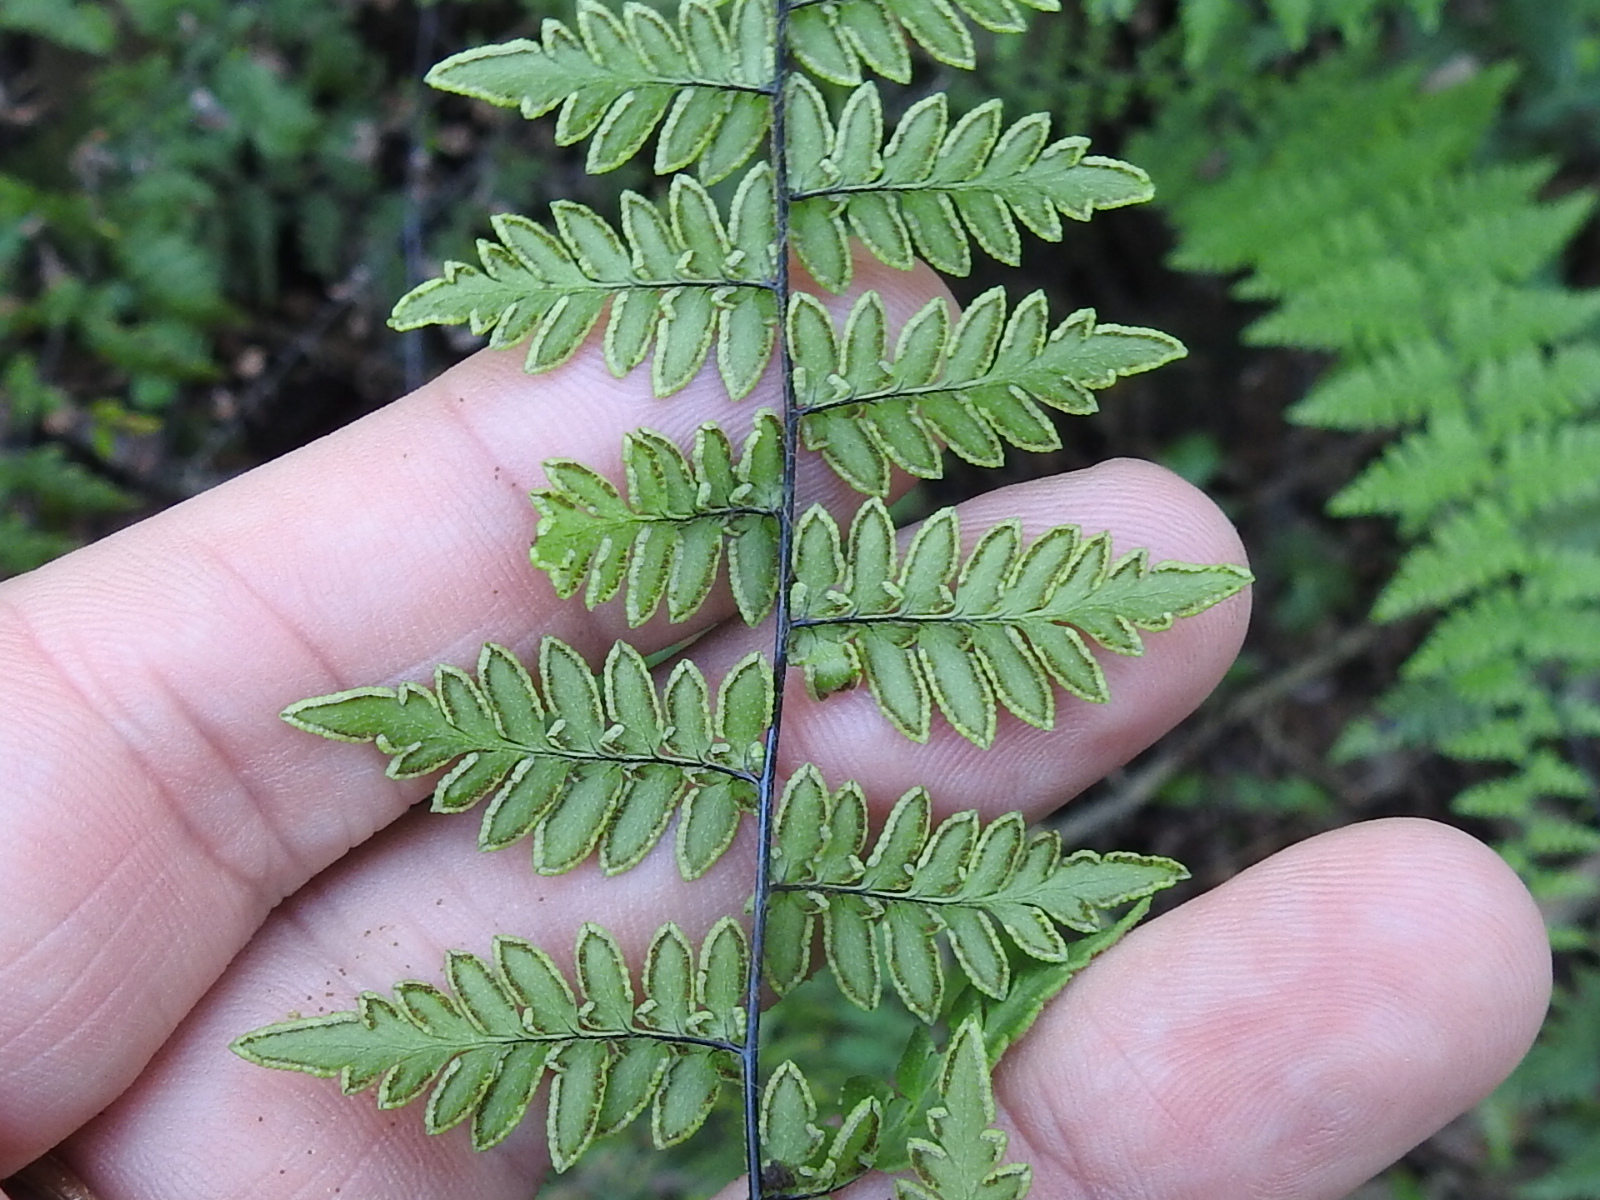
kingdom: Plantae
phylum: Tracheophyta
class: Polypodiopsida
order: Polypodiales
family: Pteridaceae
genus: Myriopteris
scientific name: Myriopteris alabamensis
